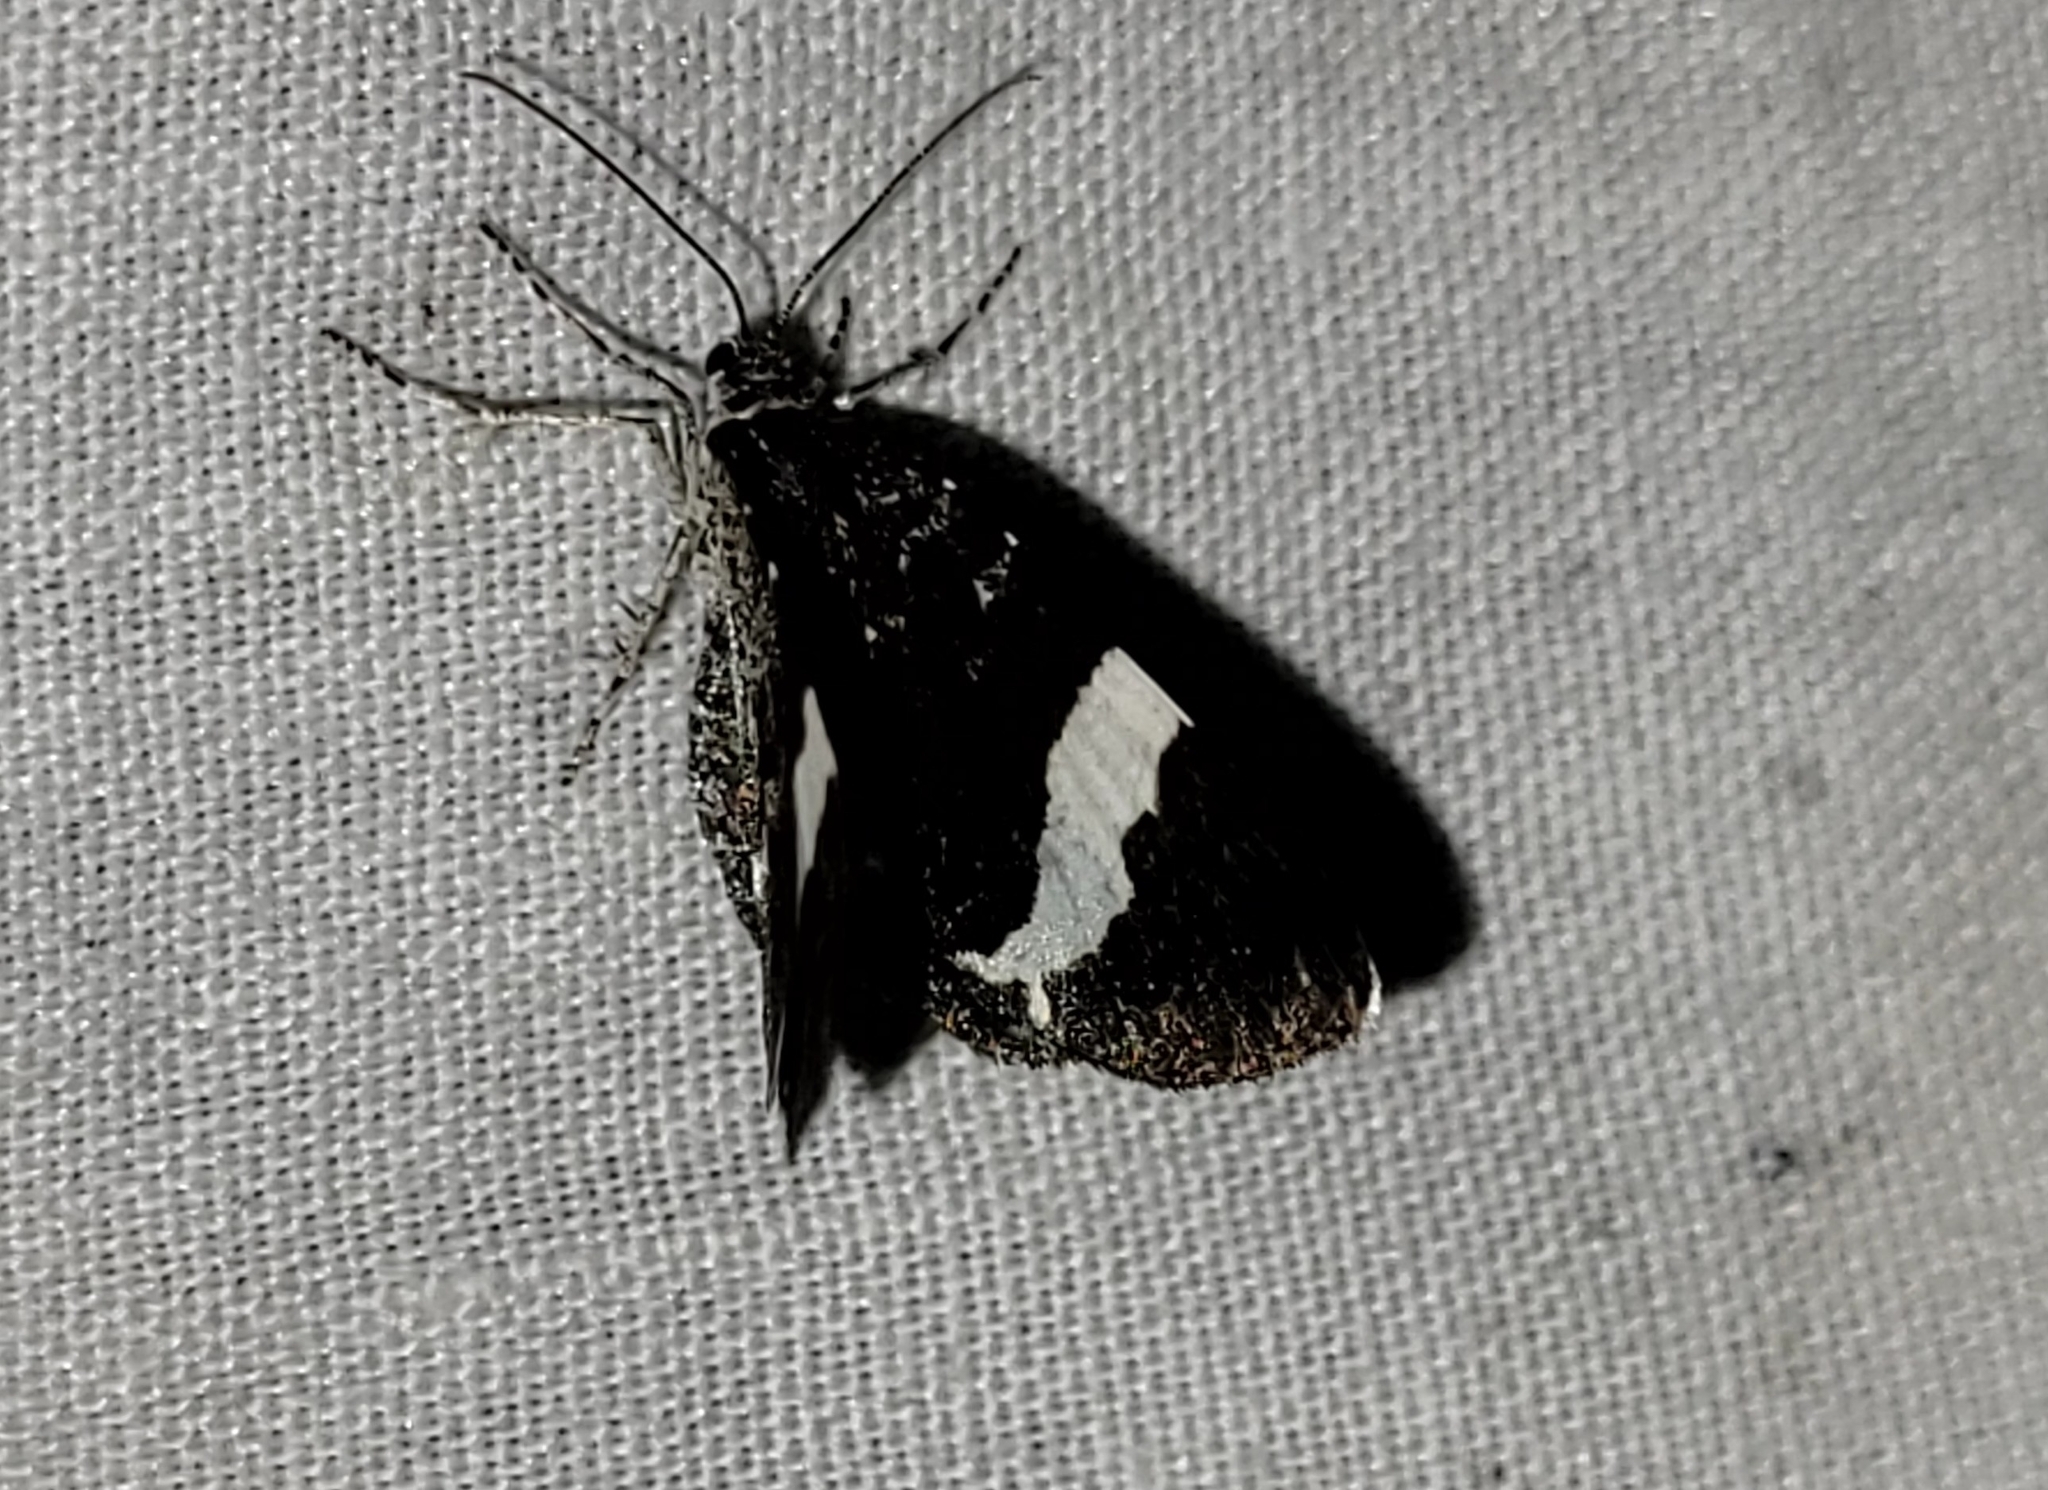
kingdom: Animalia
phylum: Arthropoda
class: Insecta
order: Lepidoptera
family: Geometridae
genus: Trichodezia
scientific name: Trichodezia albovittata
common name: White striped black
